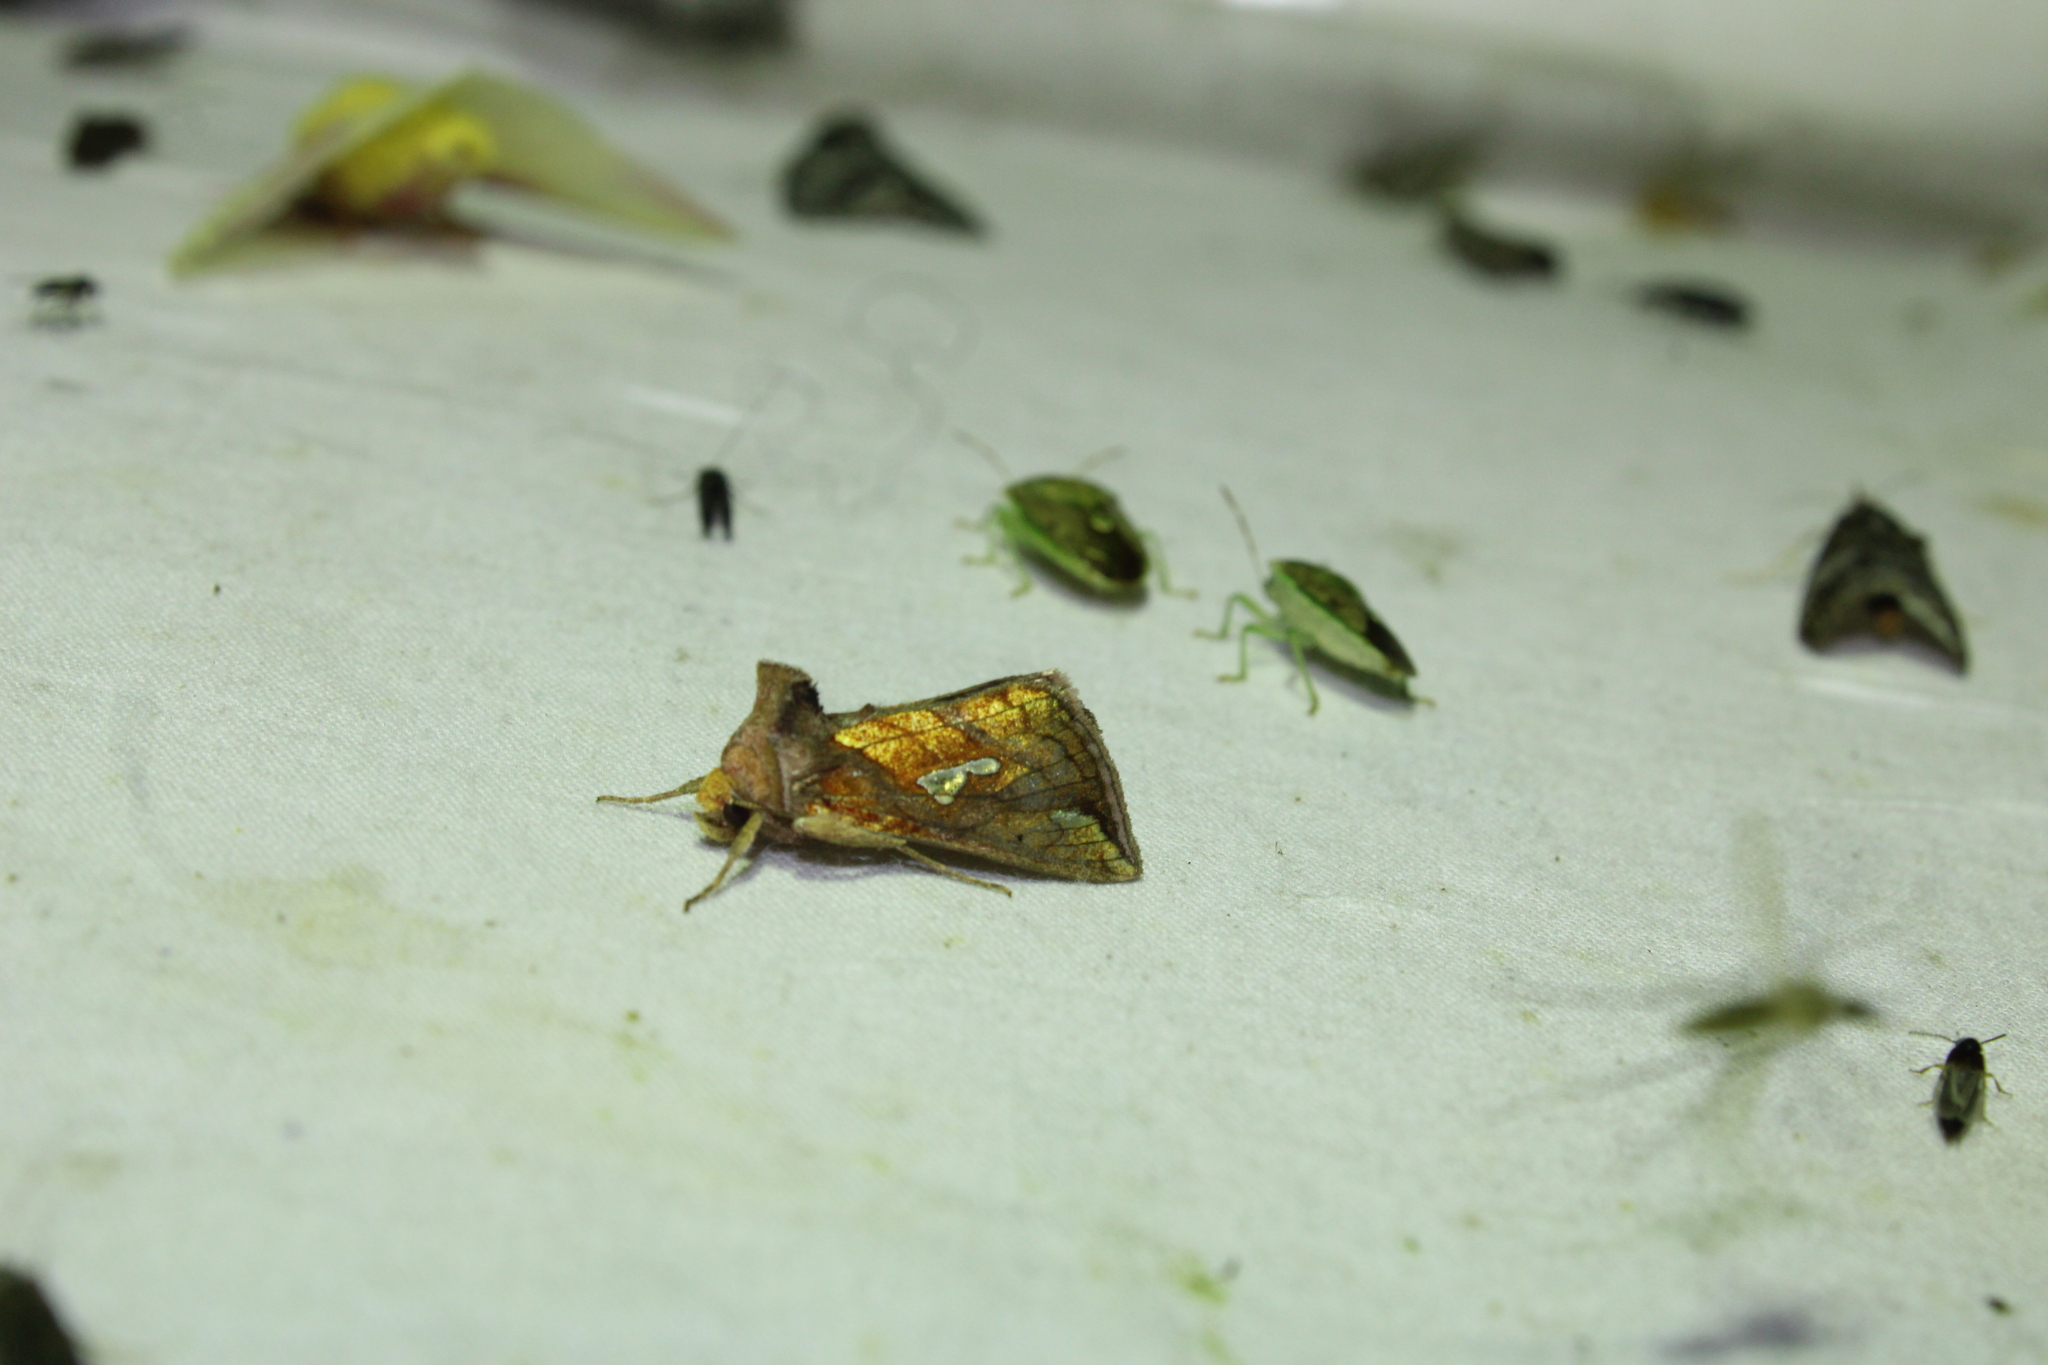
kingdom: Animalia
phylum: Arthropoda
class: Insecta
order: Lepidoptera
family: Noctuidae
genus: Plusia
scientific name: Plusia putnami
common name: Lempke's gold spot
